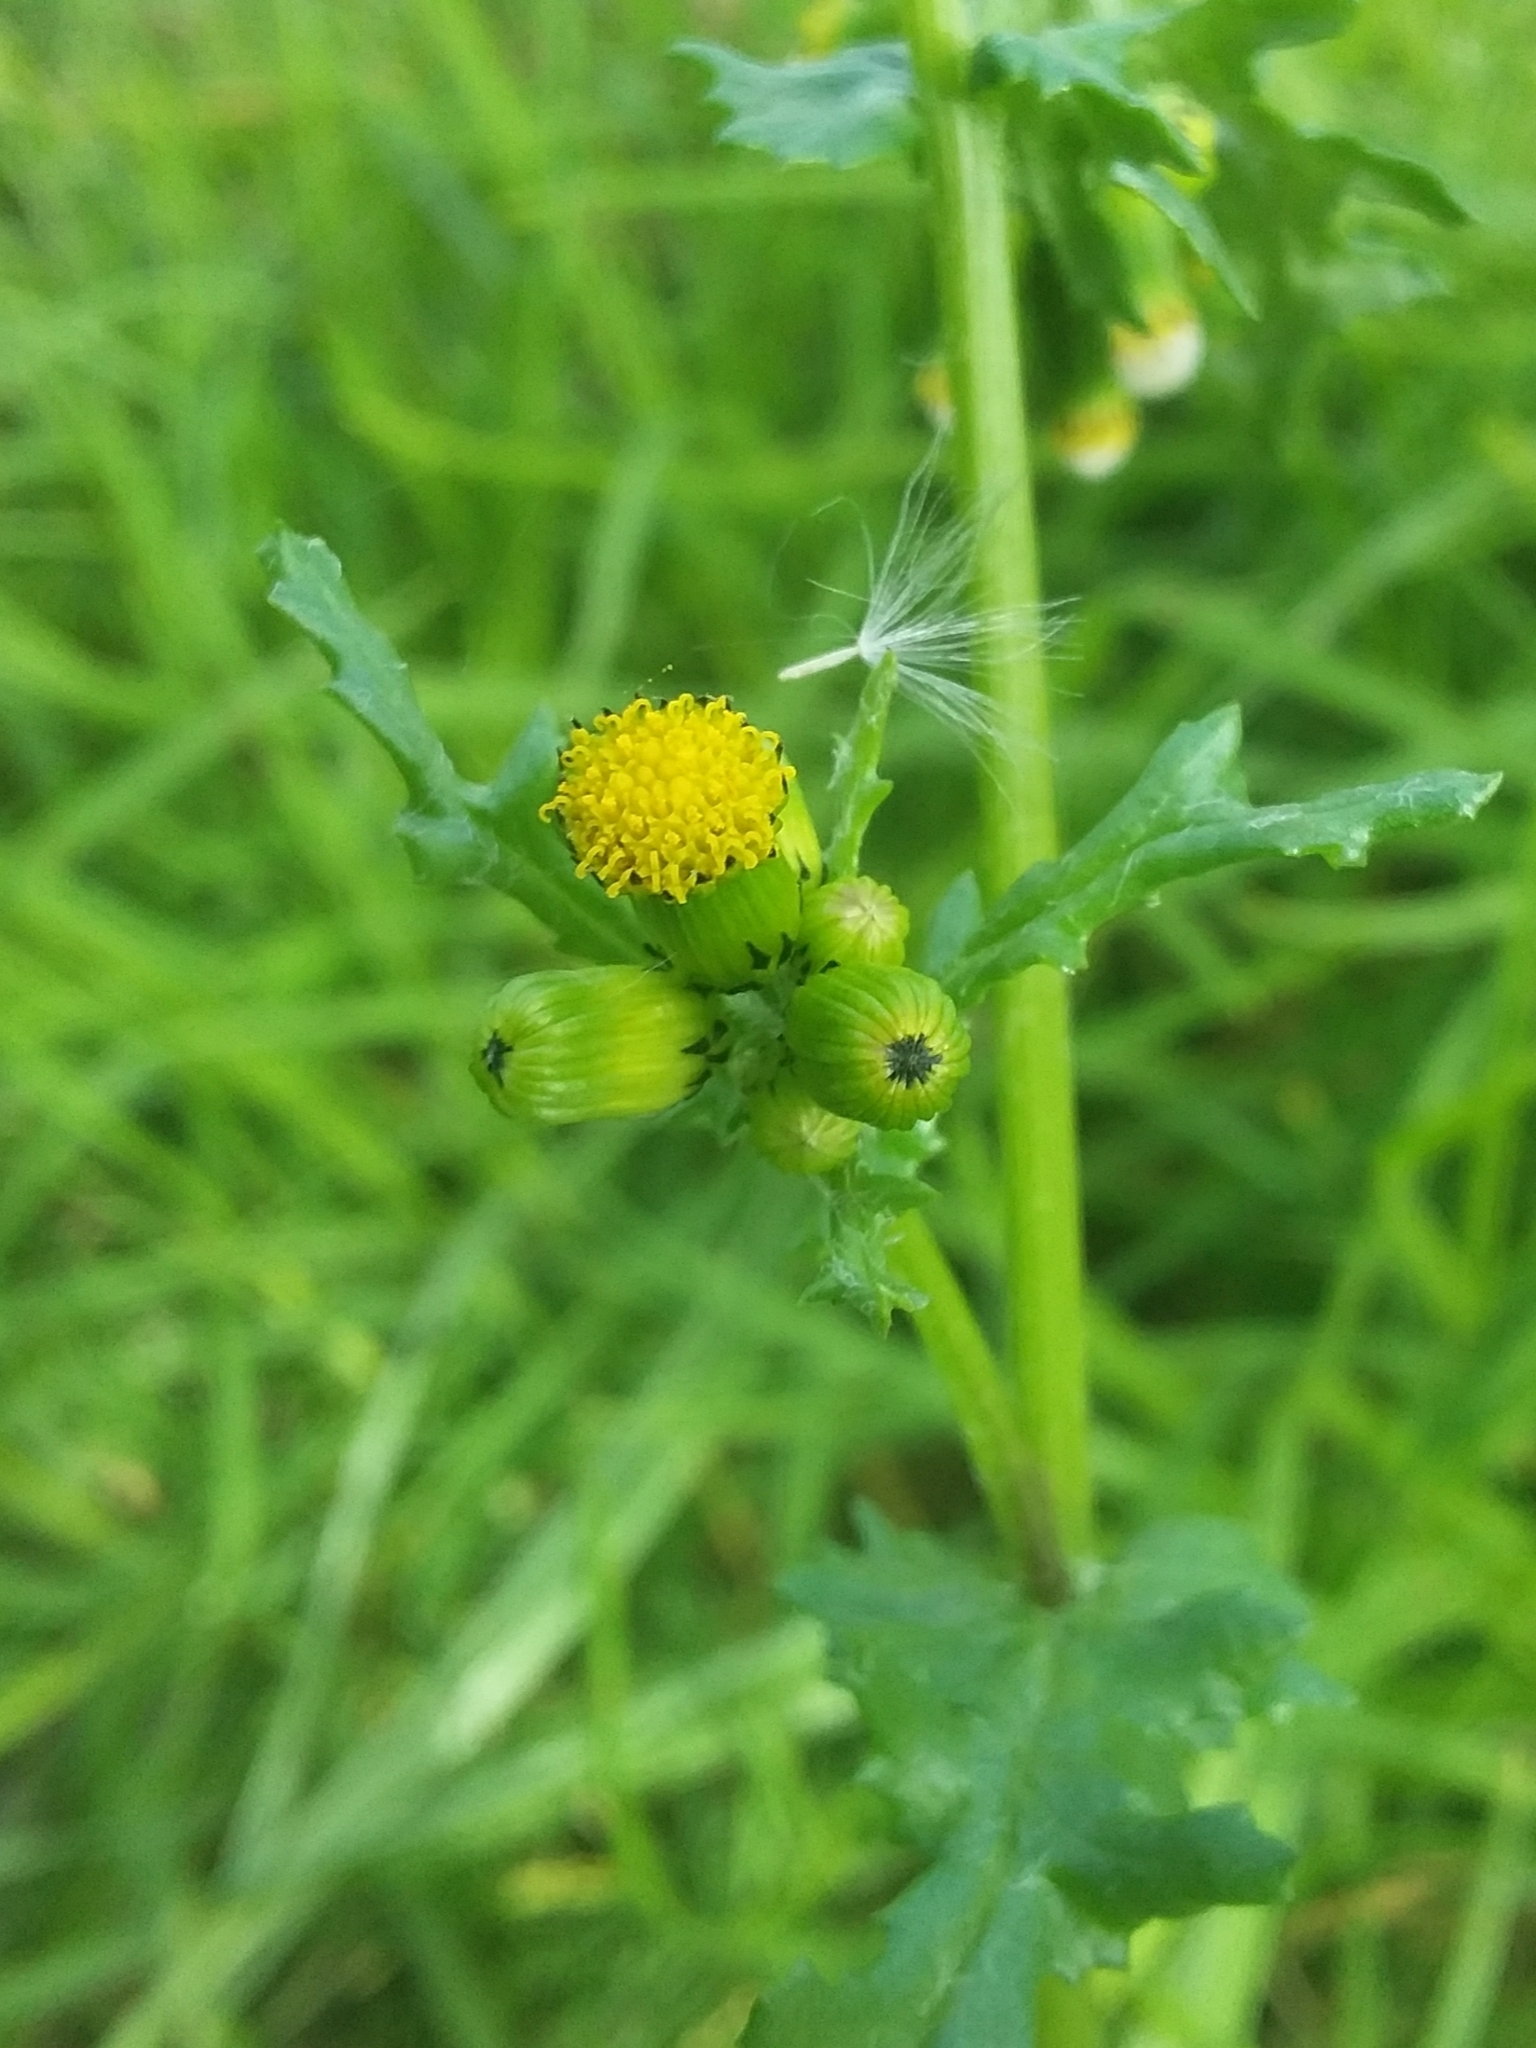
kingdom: Plantae
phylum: Tracheophyta
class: Magnoliopsida
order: Asterales
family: Asteraceae
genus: Senecio
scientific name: Senecio vulgaris
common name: Old-man-in-the-spring
